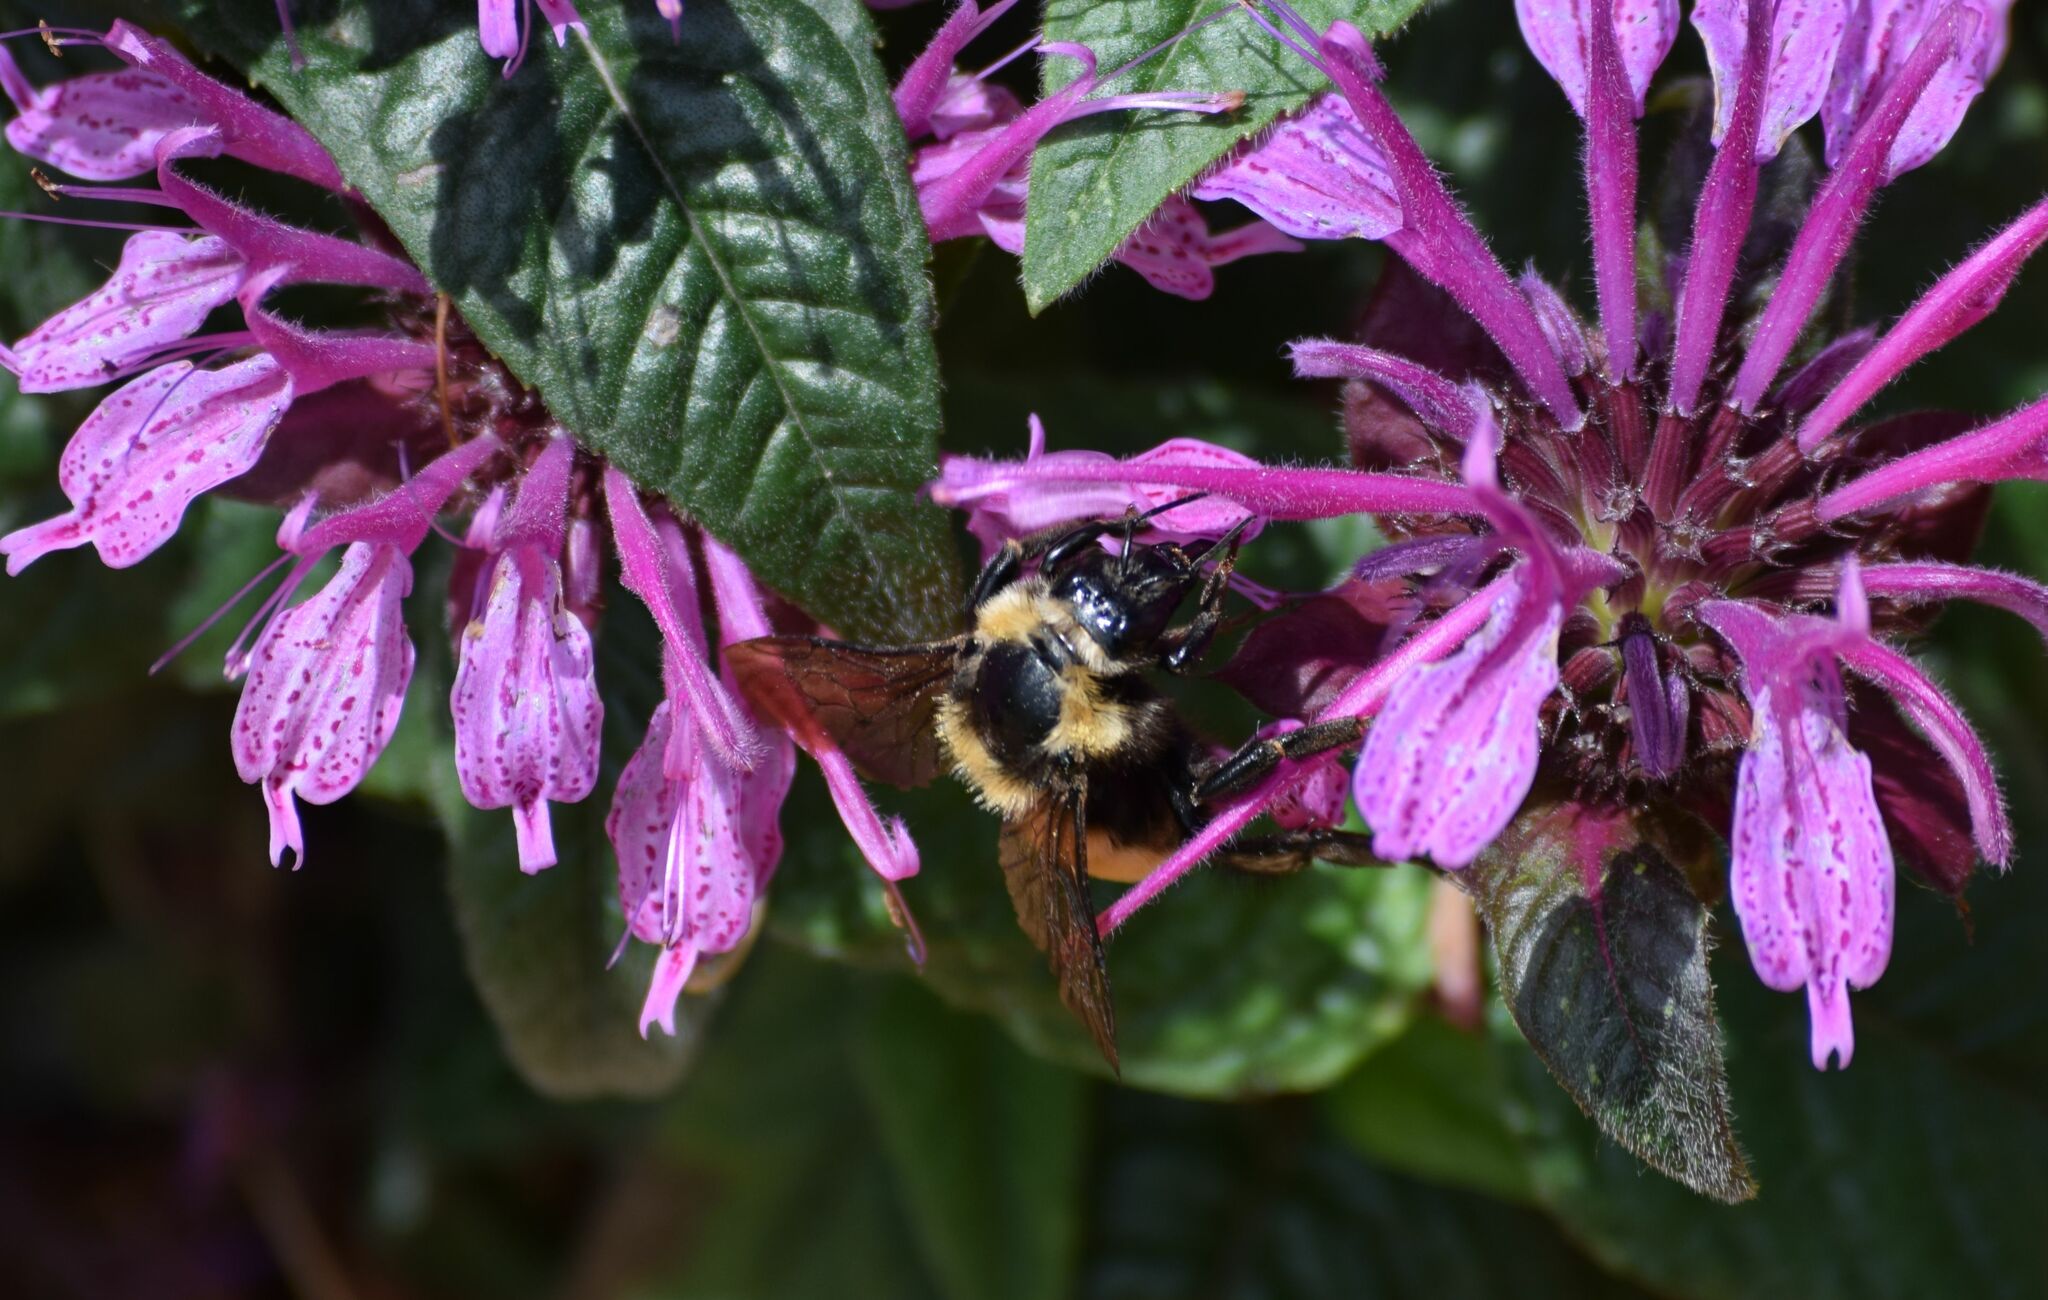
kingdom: Animalia
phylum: Arthropoda
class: Insecta
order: Hymenoptera
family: Apidae
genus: Bombus
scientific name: Bombus borealis
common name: Northern amber bumble bee
